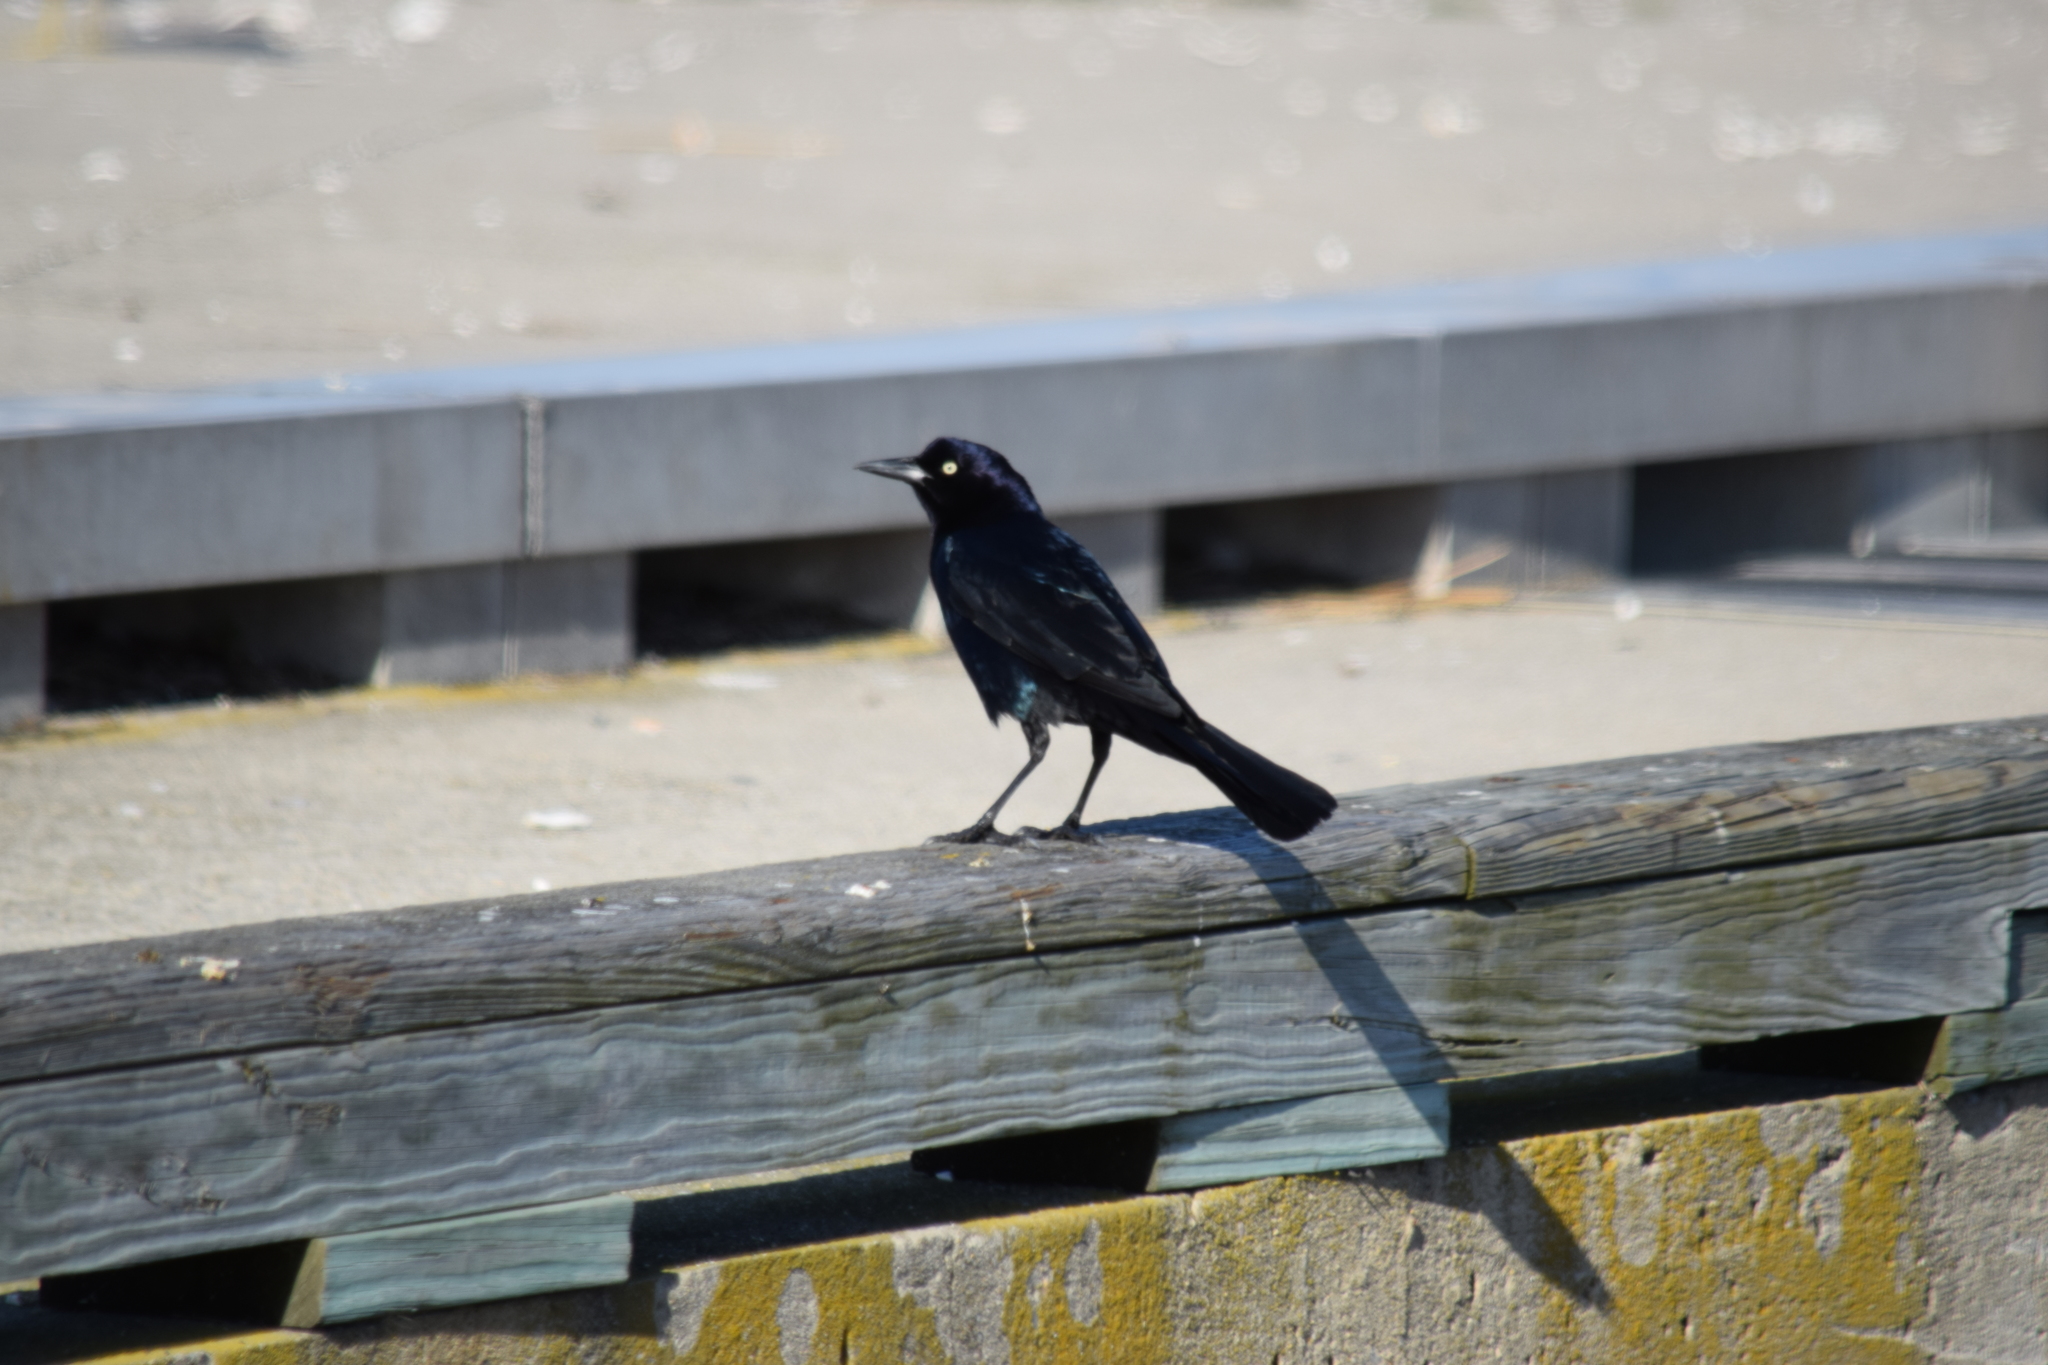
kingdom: Animalia
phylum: Chordata
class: Aves
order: Passeriformes
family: Icteridae
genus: Quiscalus
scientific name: Quiscalus quiscula
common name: Common grackle
